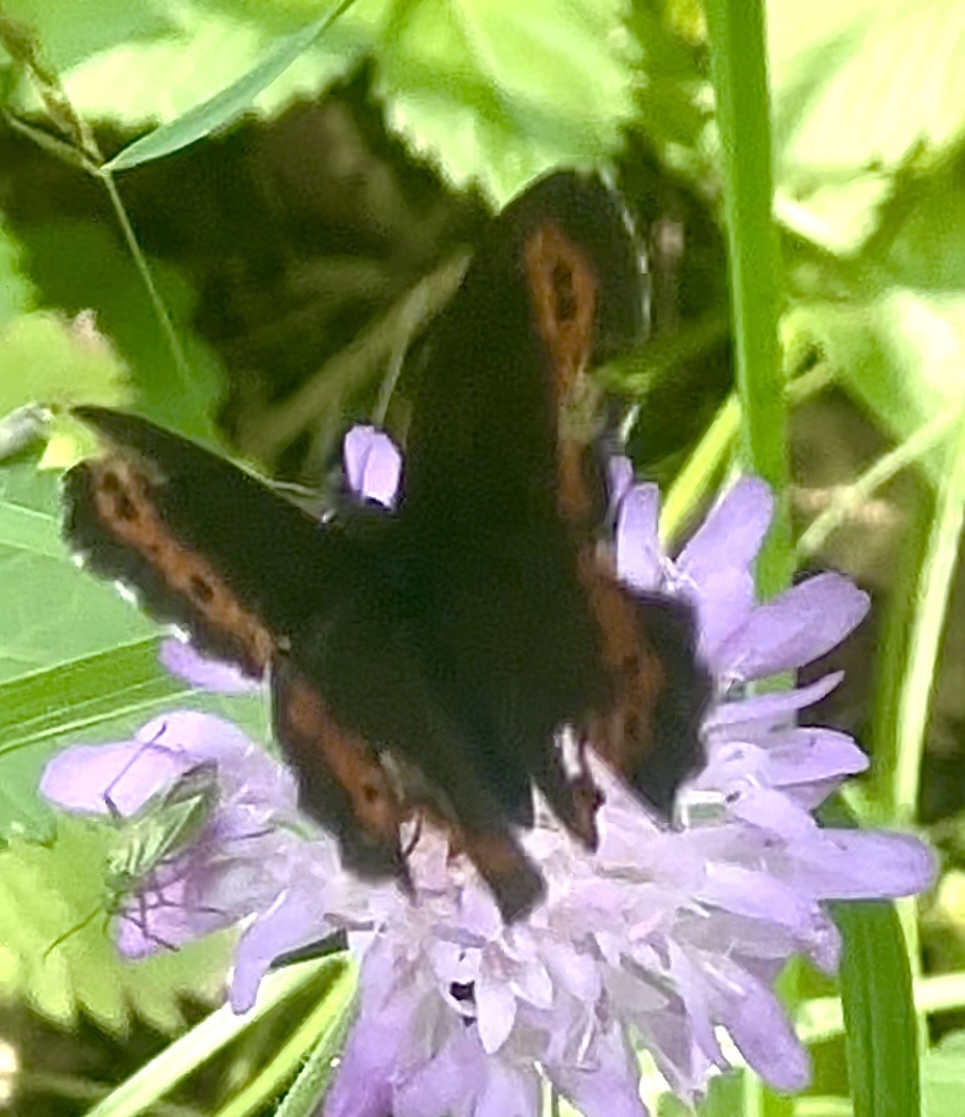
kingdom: Animalia
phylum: Arthropoda
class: Insecta
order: Lepidoptera
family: Nymphalidae
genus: Erebia
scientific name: Erebia ligea
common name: Arran brown
